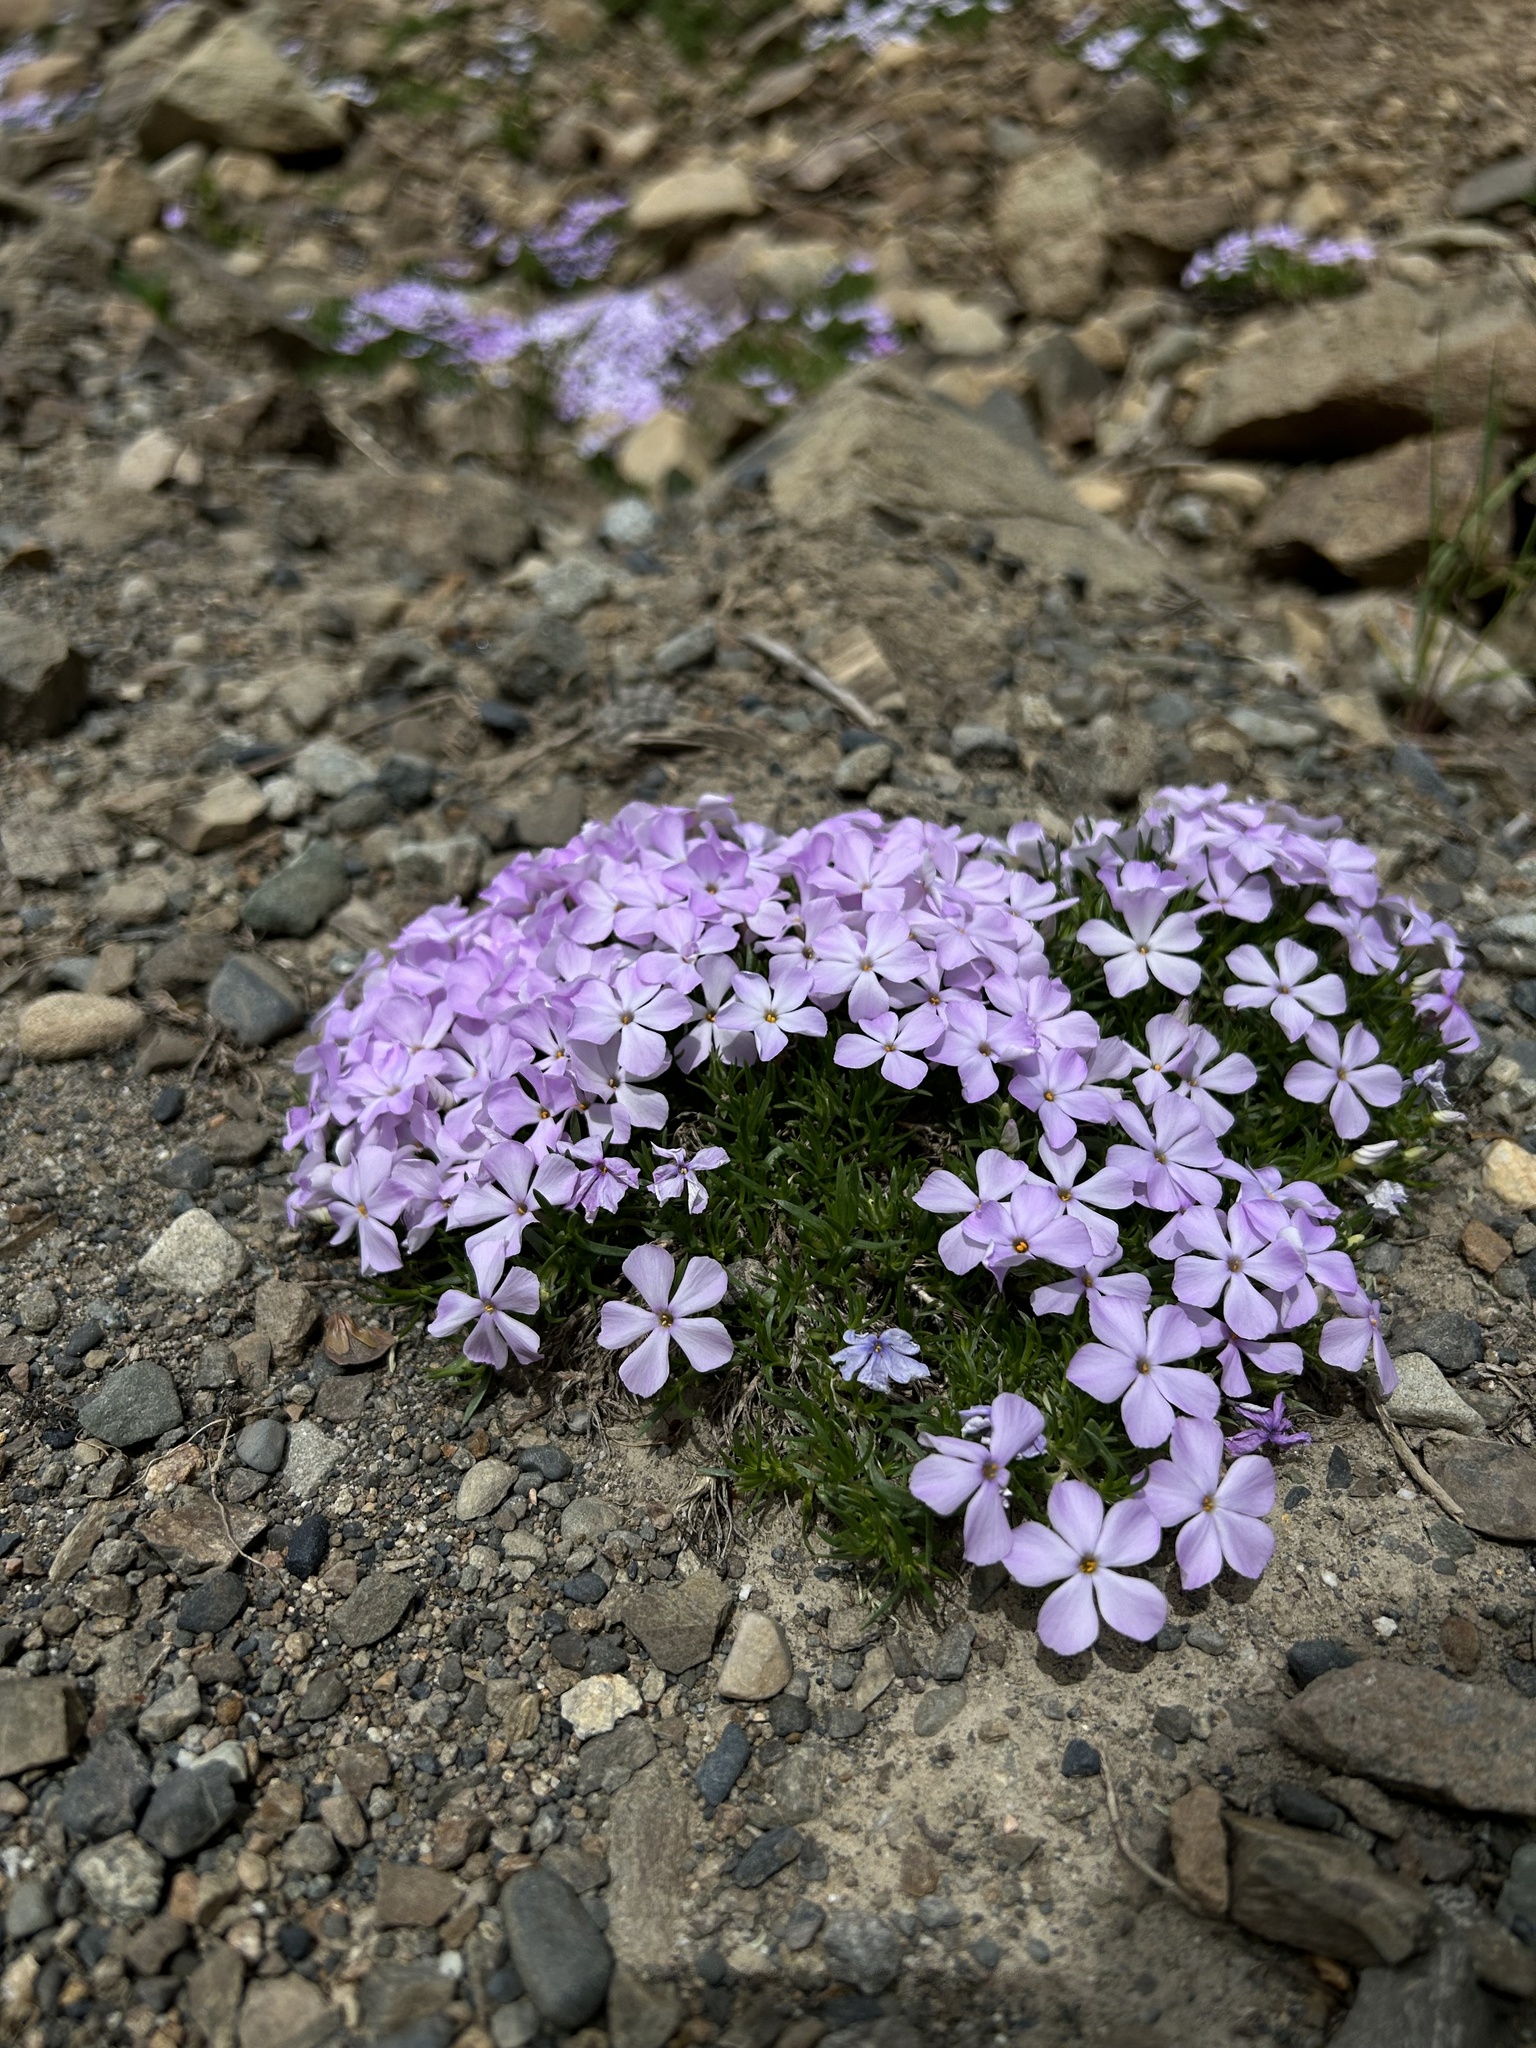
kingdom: Plantae
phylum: Tracheophyta
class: Magnoliopsida
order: Ericales
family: Polemoniaceae
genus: Phlox
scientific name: Phlox diffusa
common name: Mat phlox
